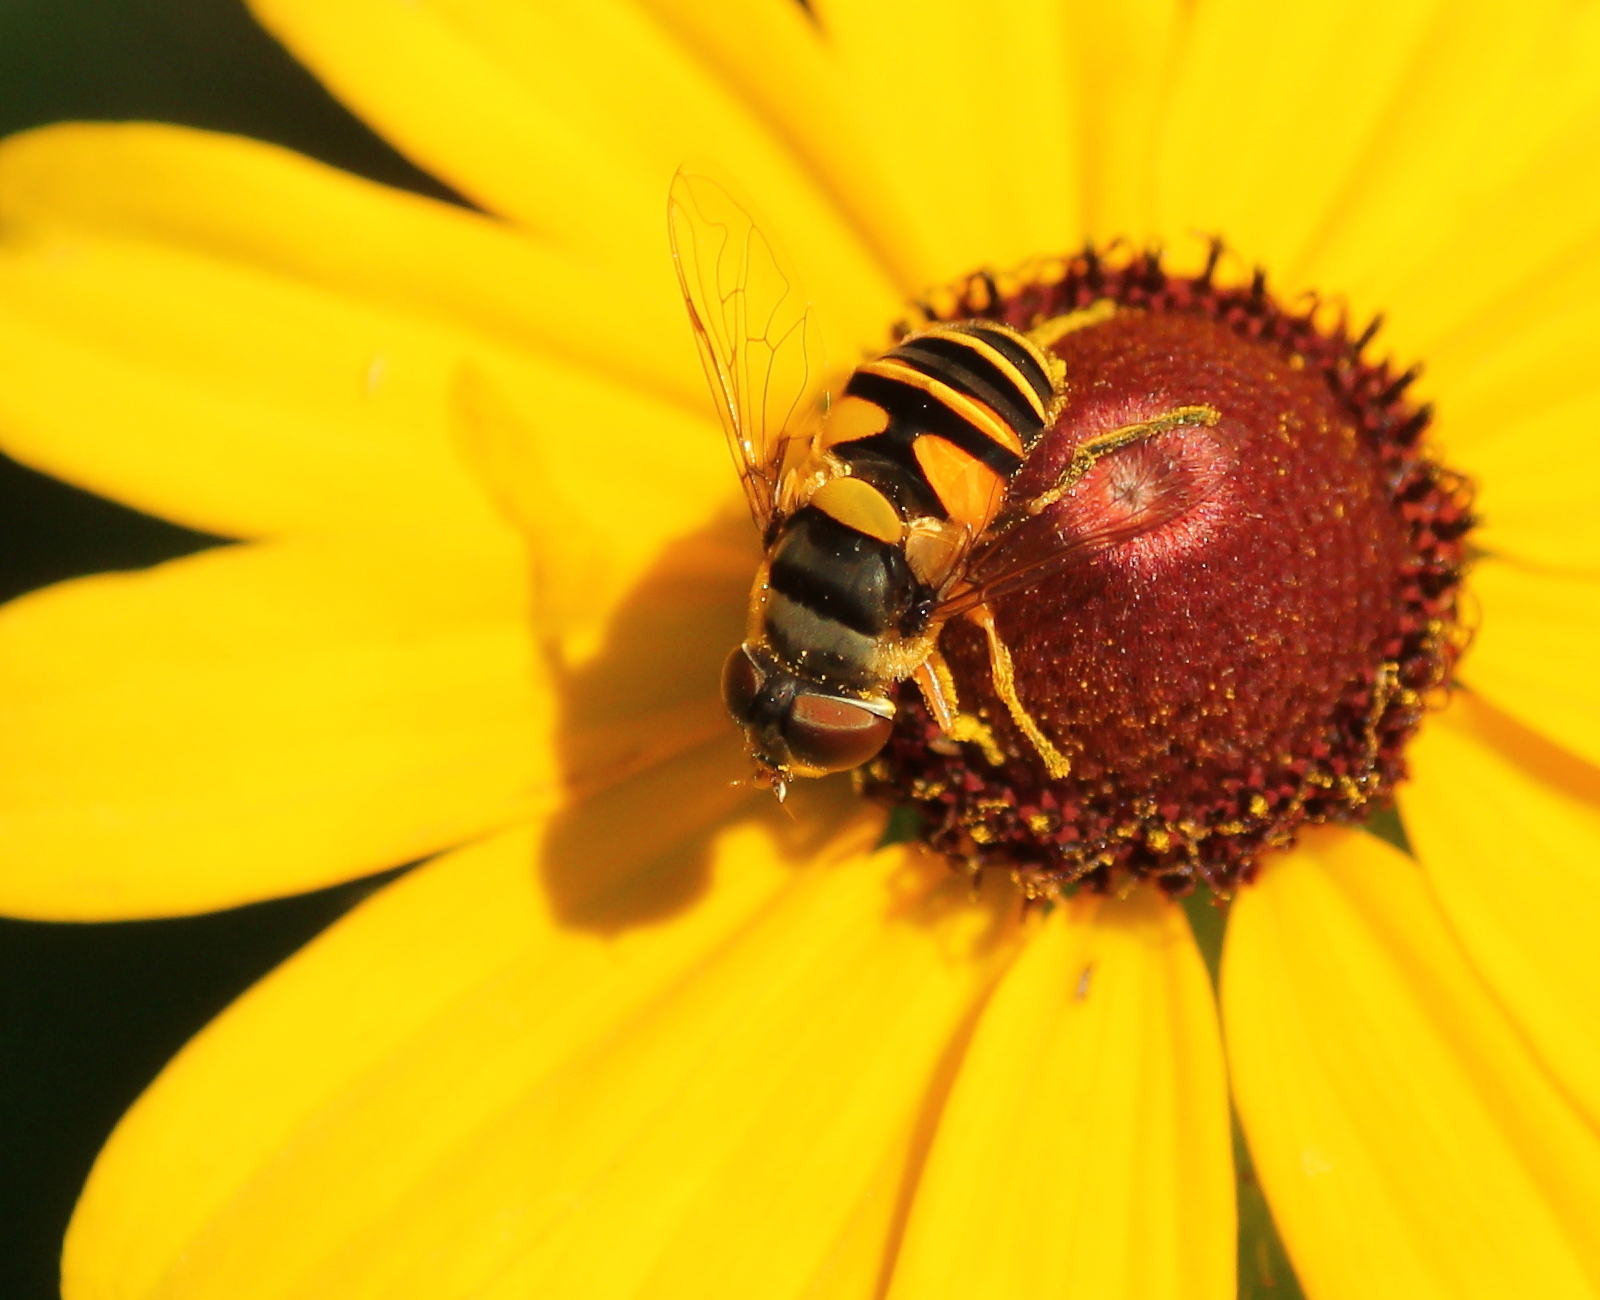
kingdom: Animalia
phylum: Arthropoda
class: Insecta
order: Diptera
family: Syrphidae
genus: Eristalis
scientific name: Eristalis transversa
